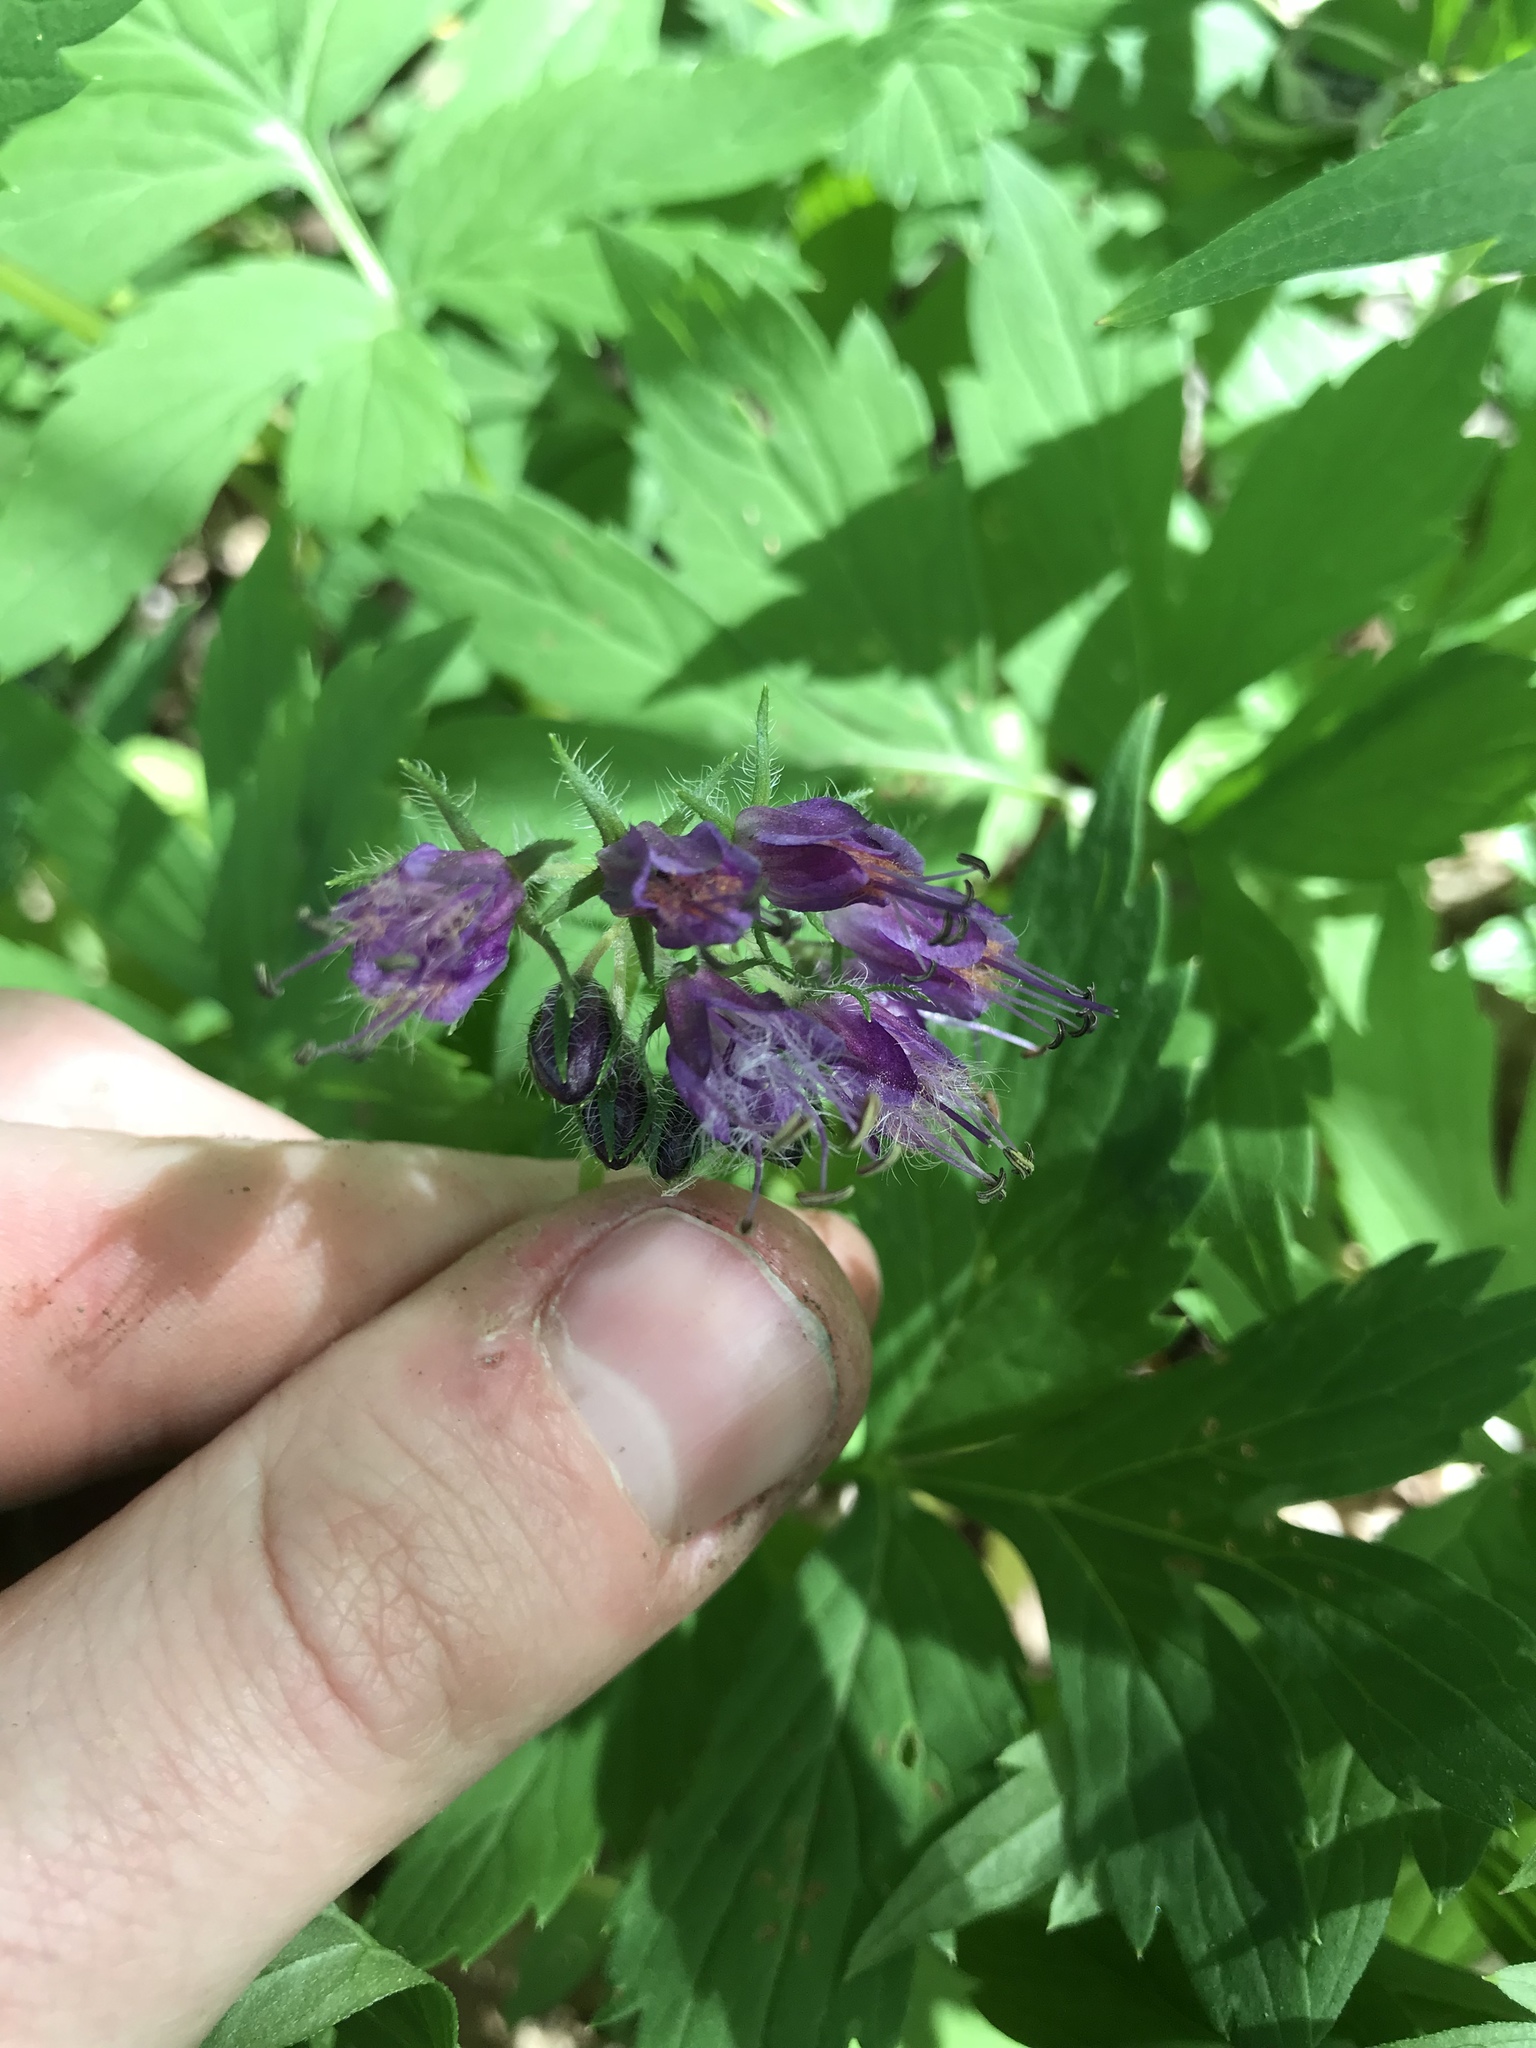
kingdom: Plantae
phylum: Tracheophyta
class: Magnoliopsida
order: Boraginales
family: Hydrophyllaceae
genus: Hydrophyllum
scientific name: Hydrophyllum virginianum
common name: Virginia waterleaf
